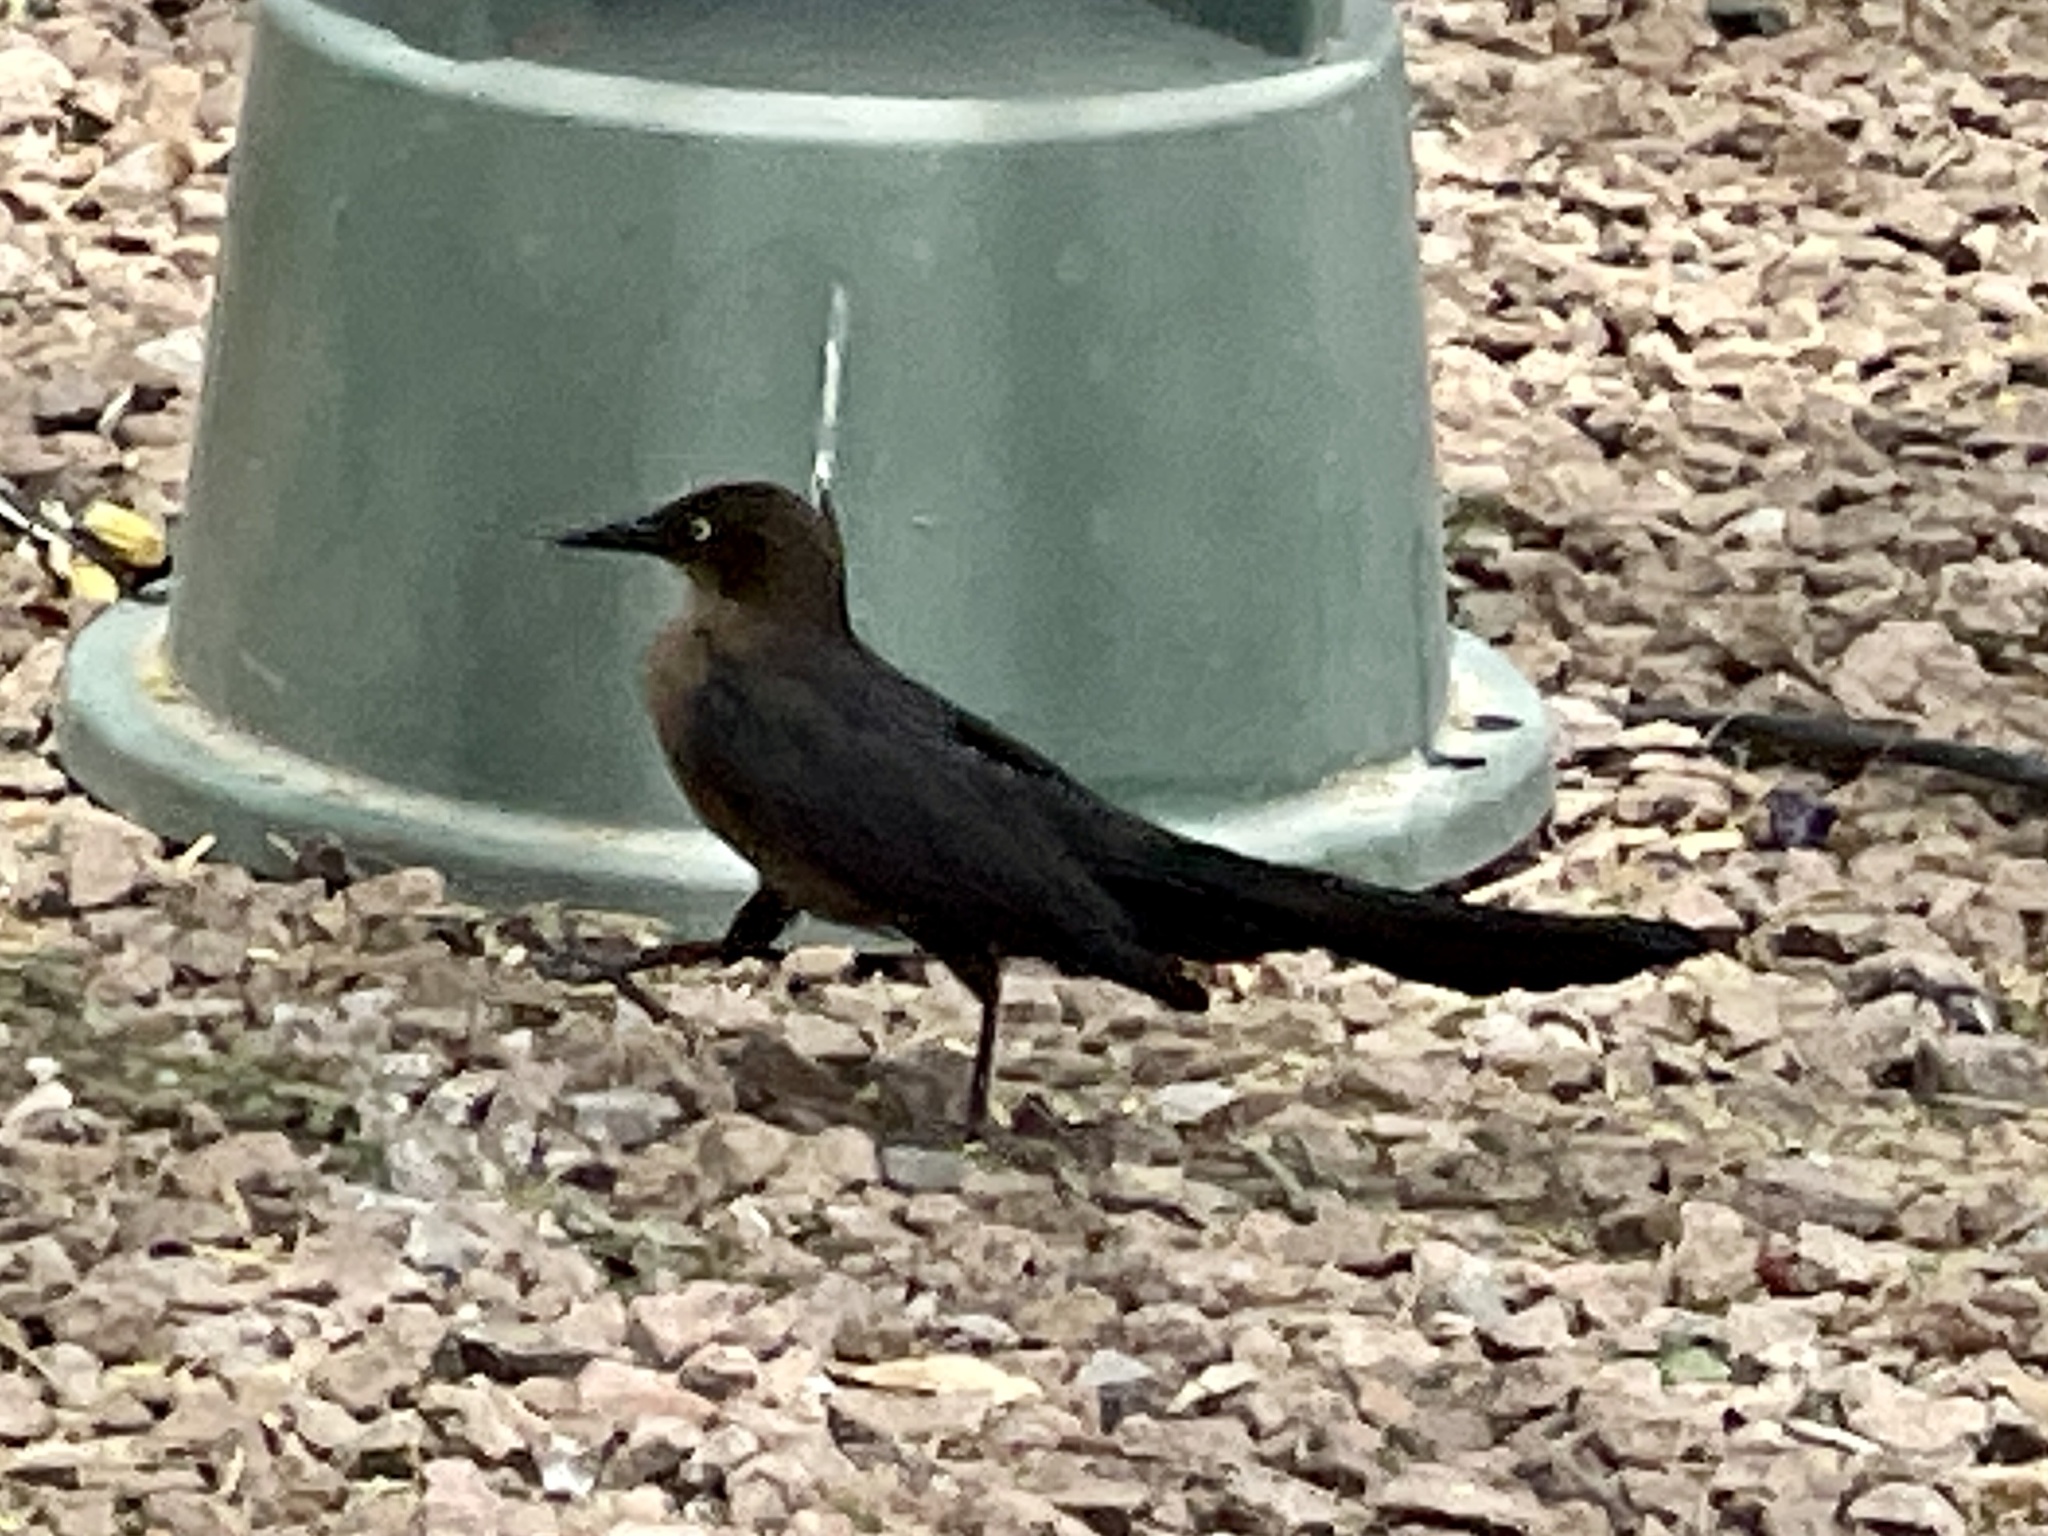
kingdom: Animalia
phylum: Chordata
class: Aves
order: Passeriformes
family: Icteridae
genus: Quiscalus
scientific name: Quiscalus mexicanus
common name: Great-tailed grackle
